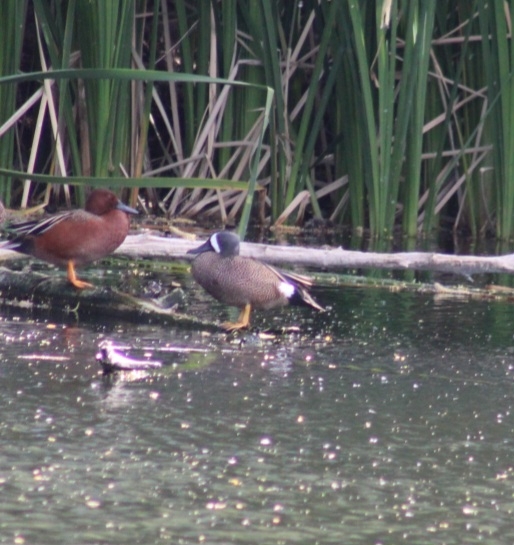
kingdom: Animalia
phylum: Chordata
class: Aves
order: Anseriformes
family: Anatidae
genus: Spatula
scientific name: Spatula discors
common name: Blue-winged teal
